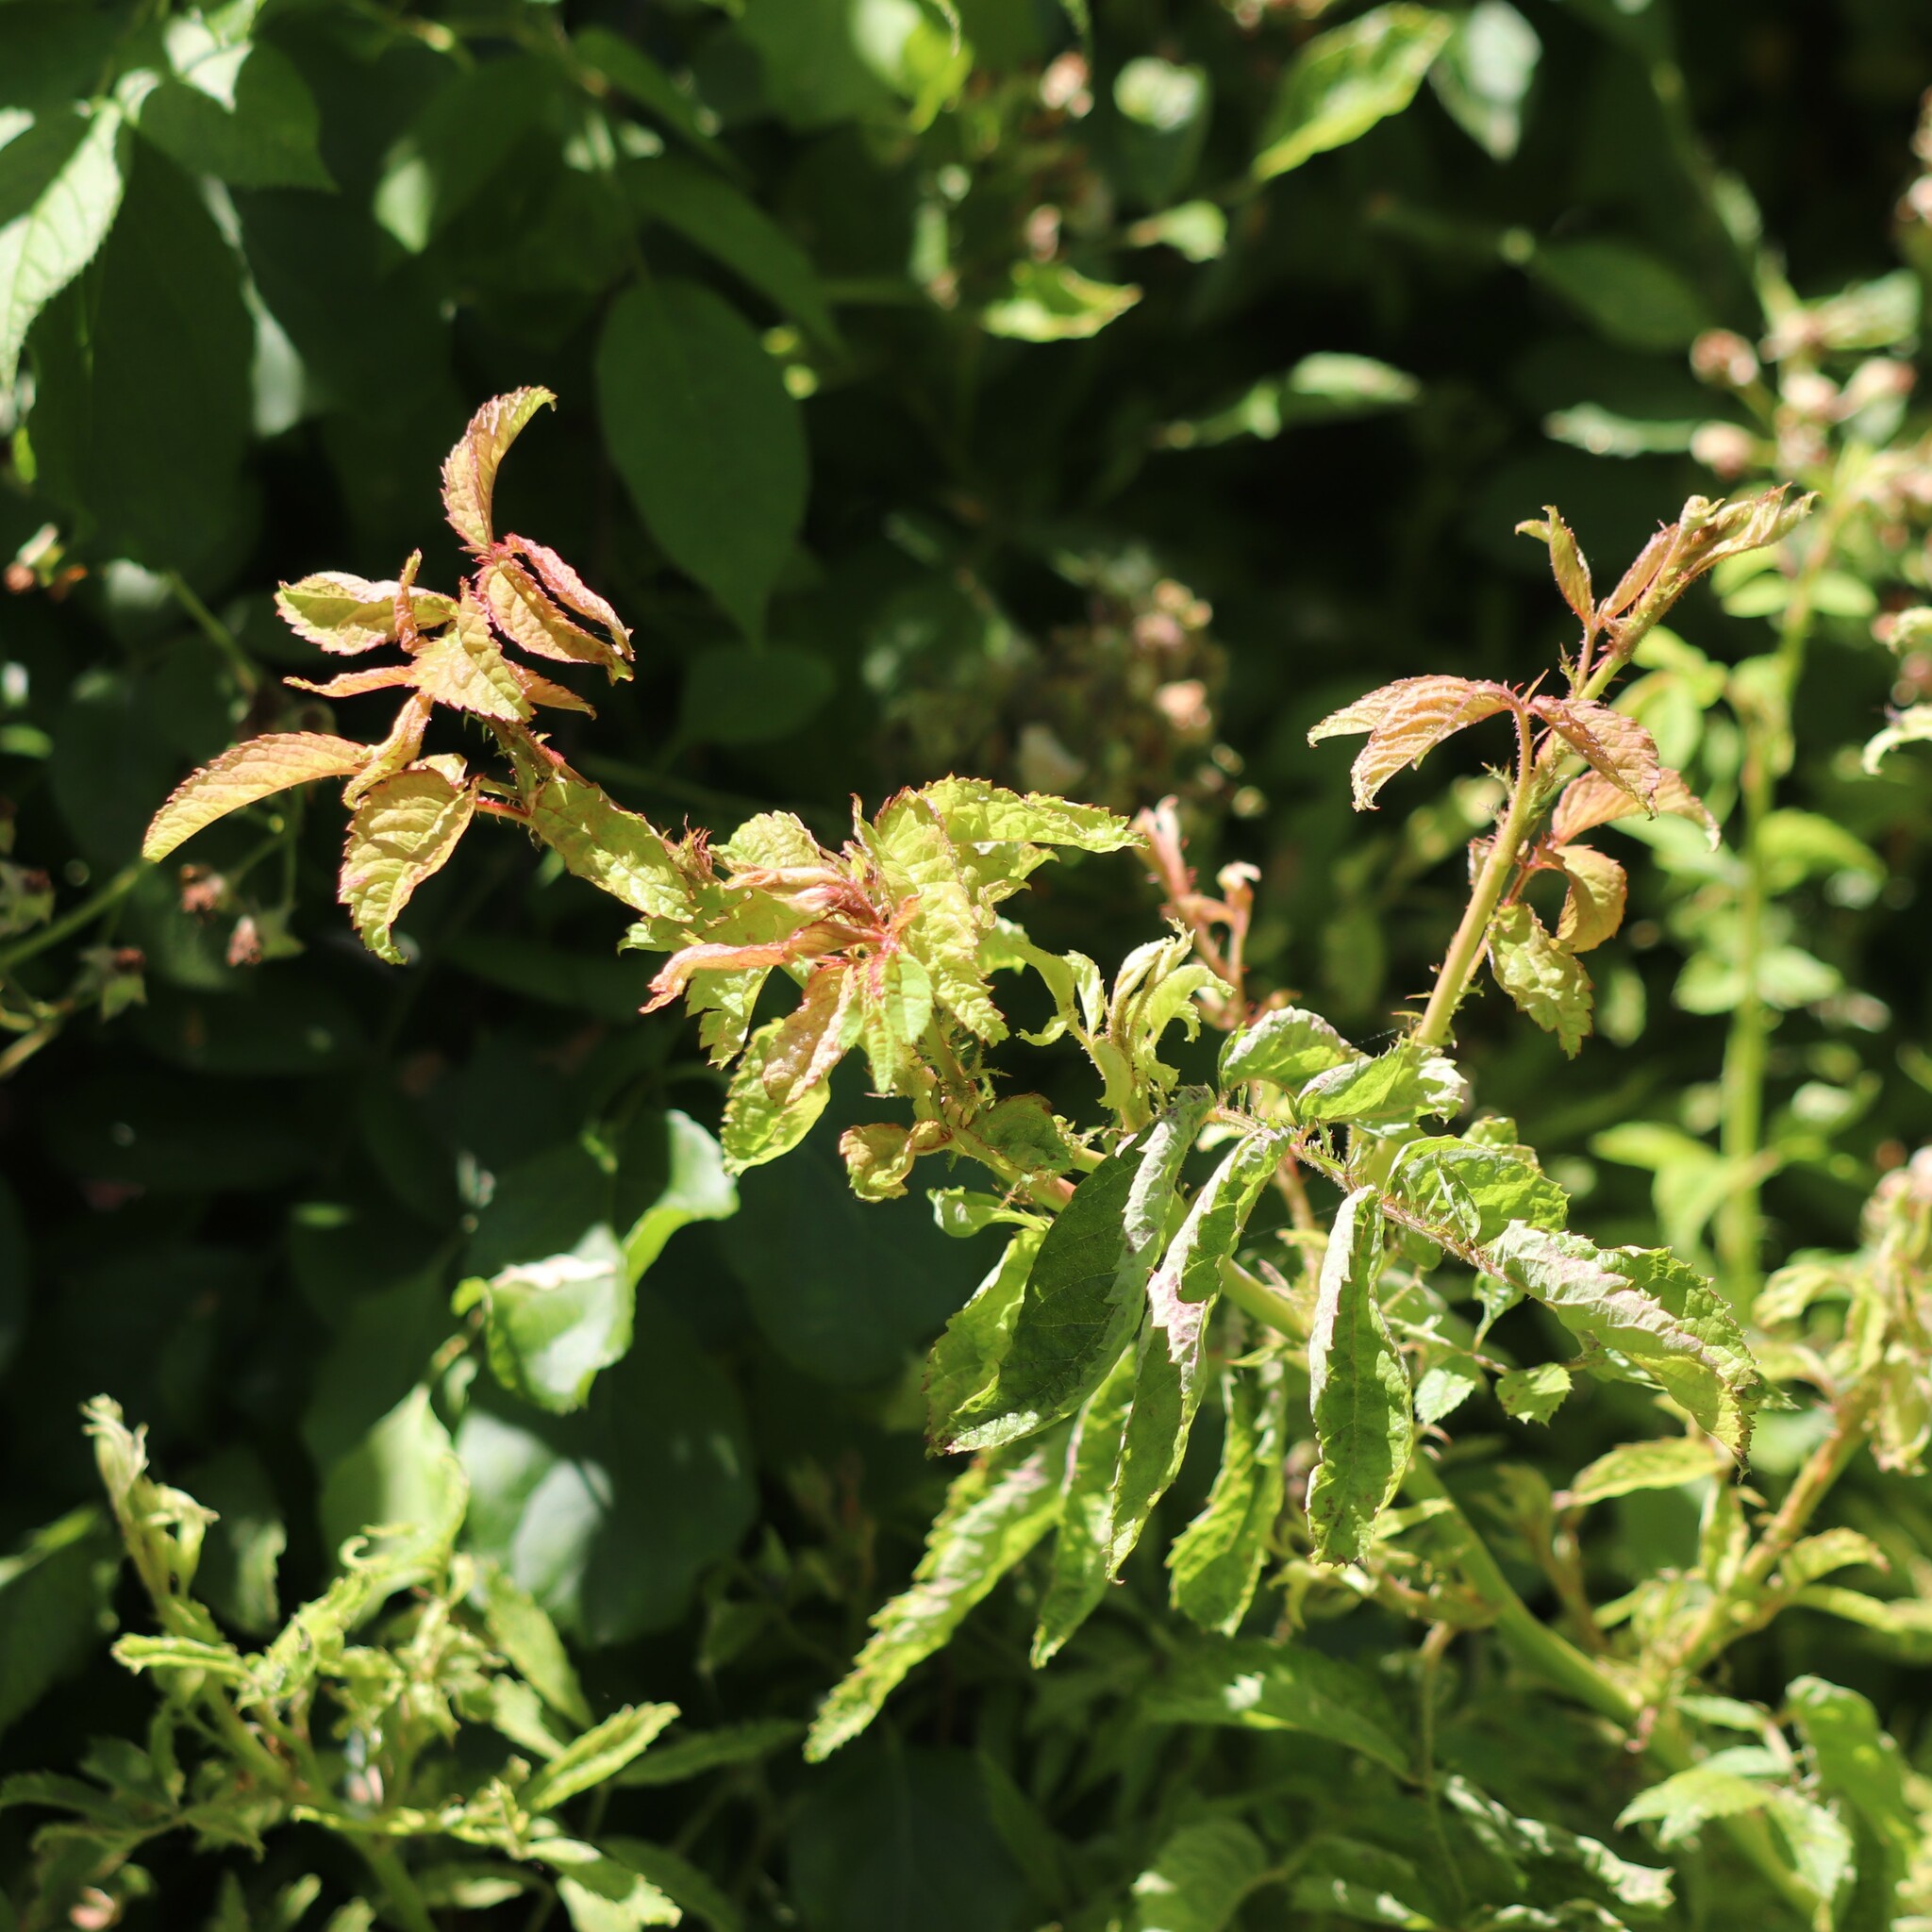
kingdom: Viruses
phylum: Negarnaviricota
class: Ellioviricetes
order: Bunyavirales
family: Fimoviridae
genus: Emaravirus
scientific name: Emaravirus rosae
